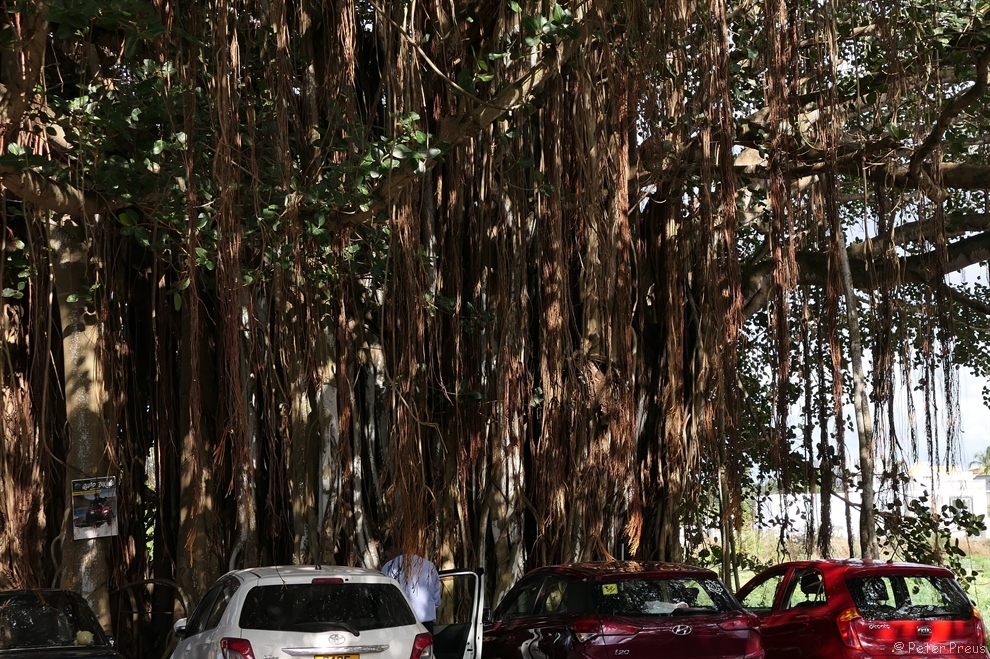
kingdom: Plantae
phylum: Tracheophyta
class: Magnoliopsida
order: Rosales
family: Moraceae
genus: Ficus
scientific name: Ficus benghalensis
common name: Indian banyan
